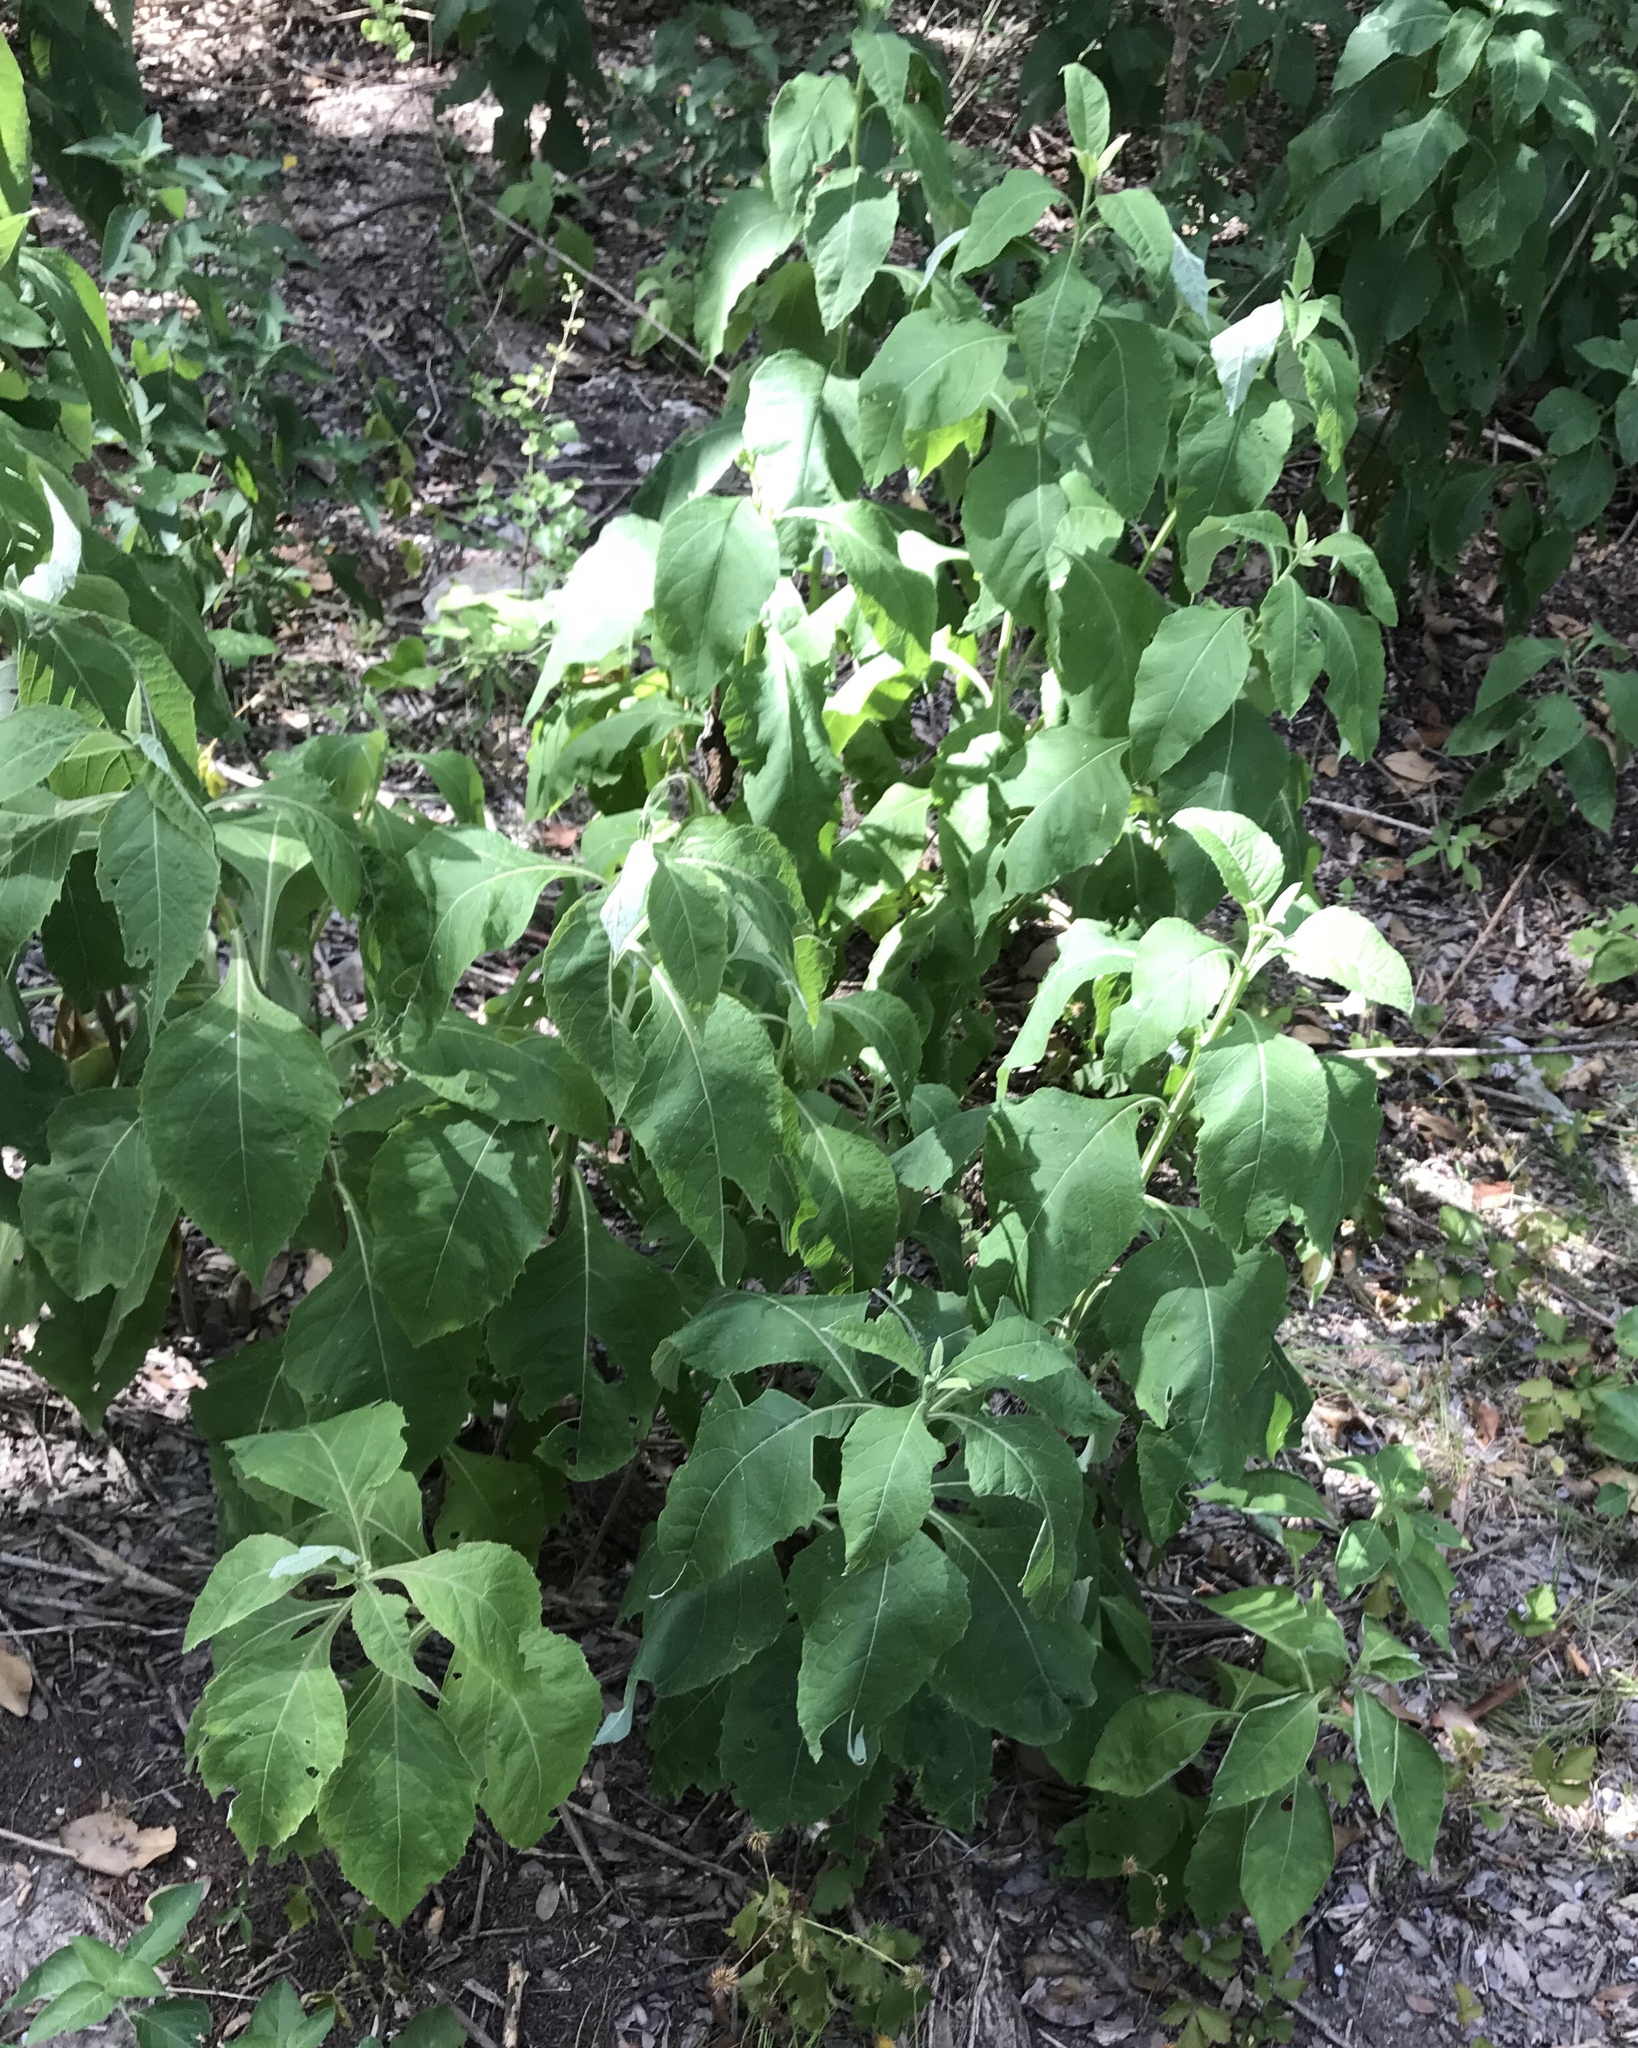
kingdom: Plantae
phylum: Tracheophyta
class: Magnoliopsida
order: Asterales
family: Asteraceae
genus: Verbesina
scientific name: Verbesina virginica
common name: Frostweed
